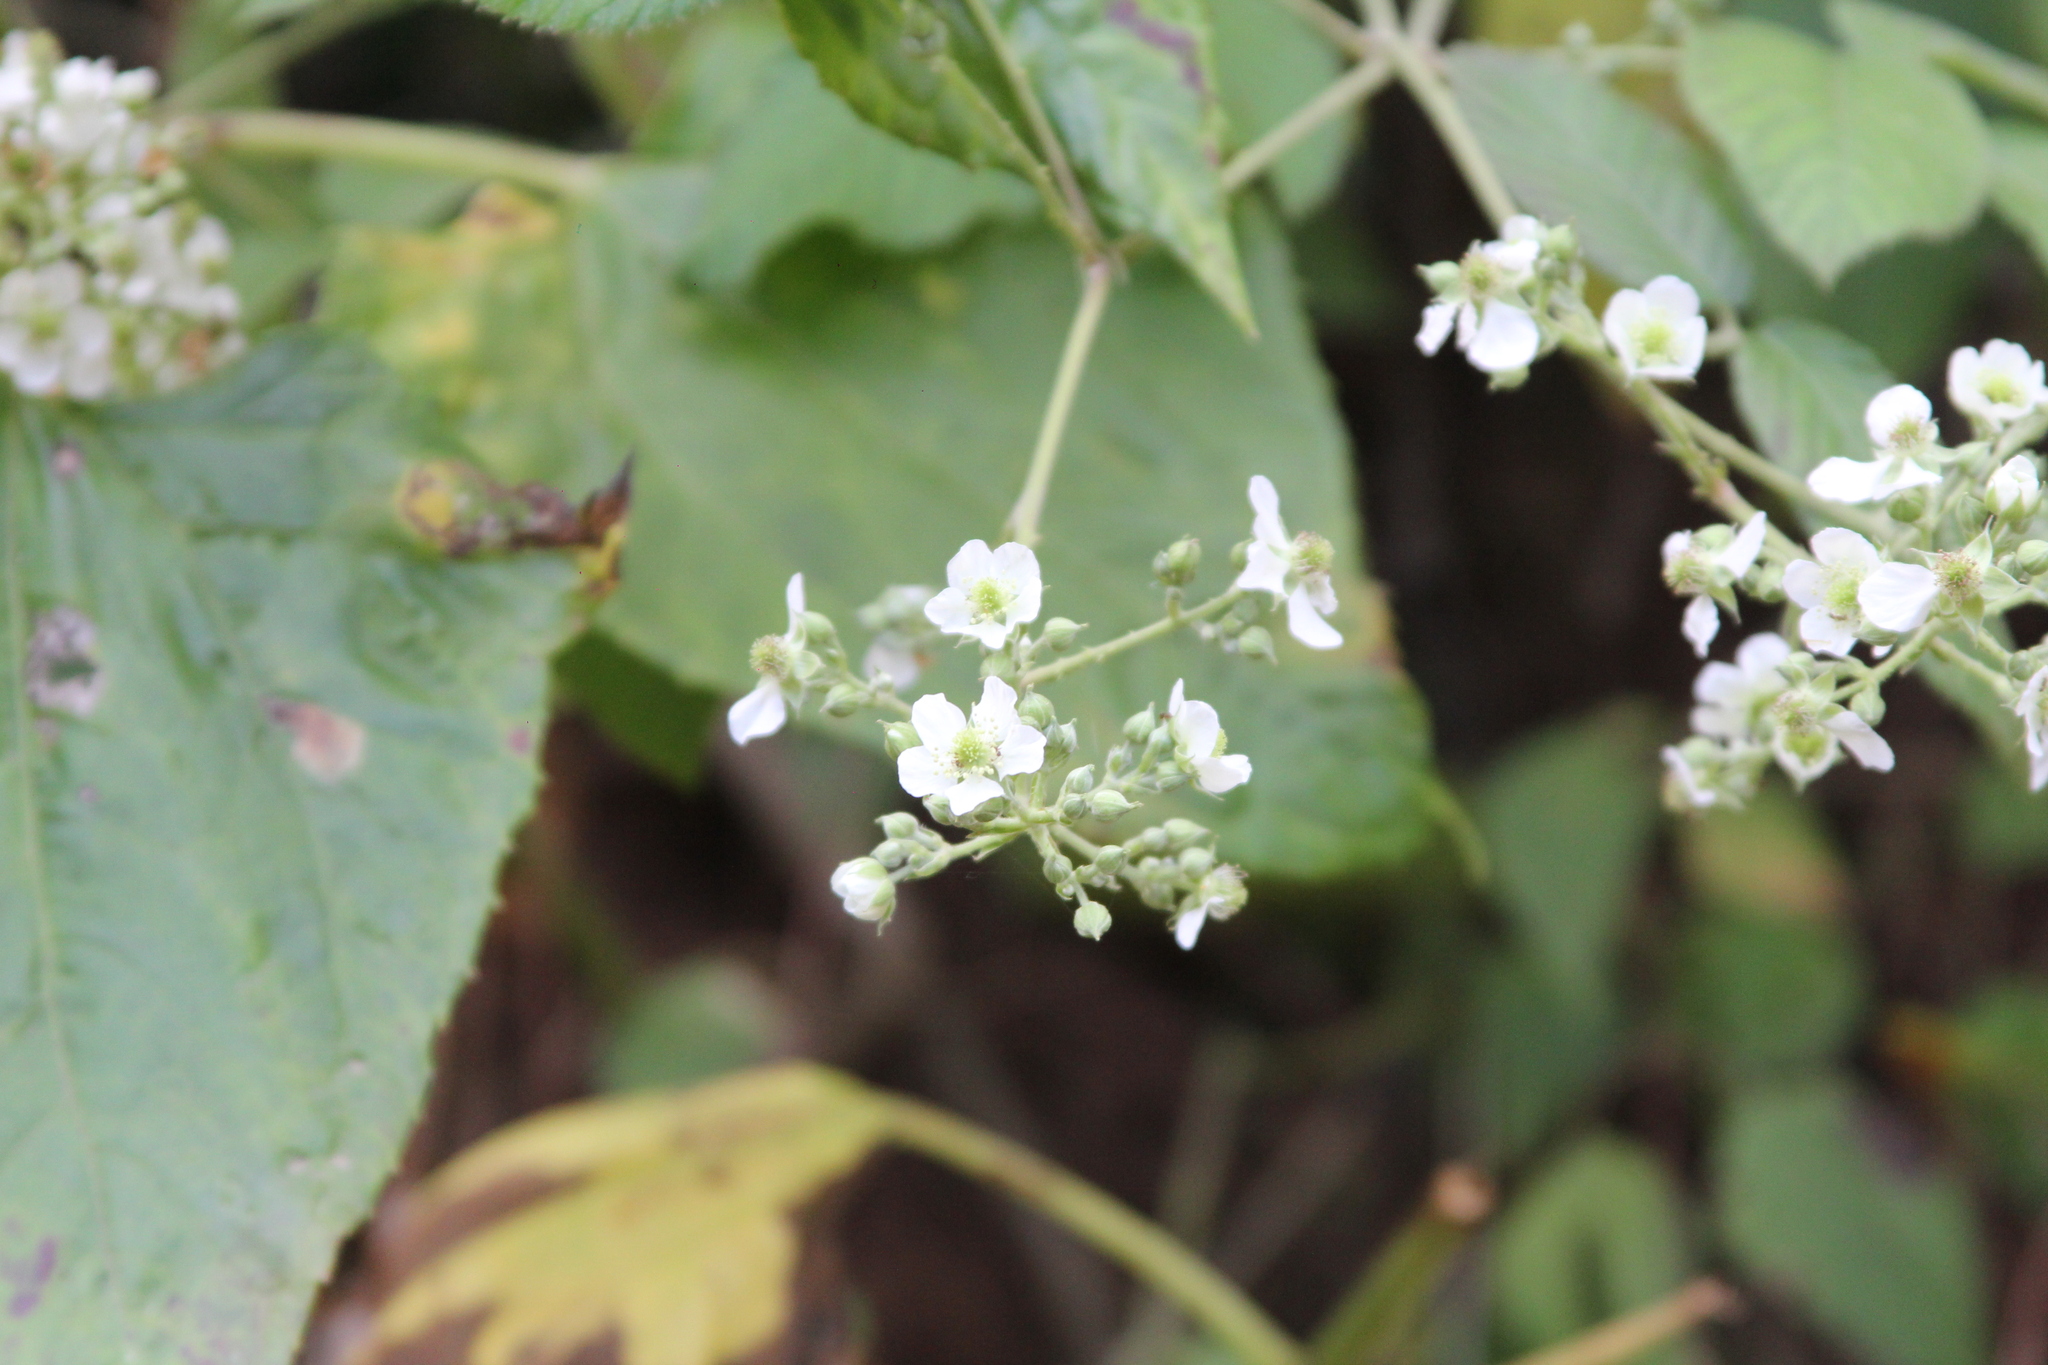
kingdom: Plantae
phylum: Tracheophyta
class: Magnoliopsida
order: Rosales
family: Rosaceae
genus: Rubus
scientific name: Rubus imperialis
